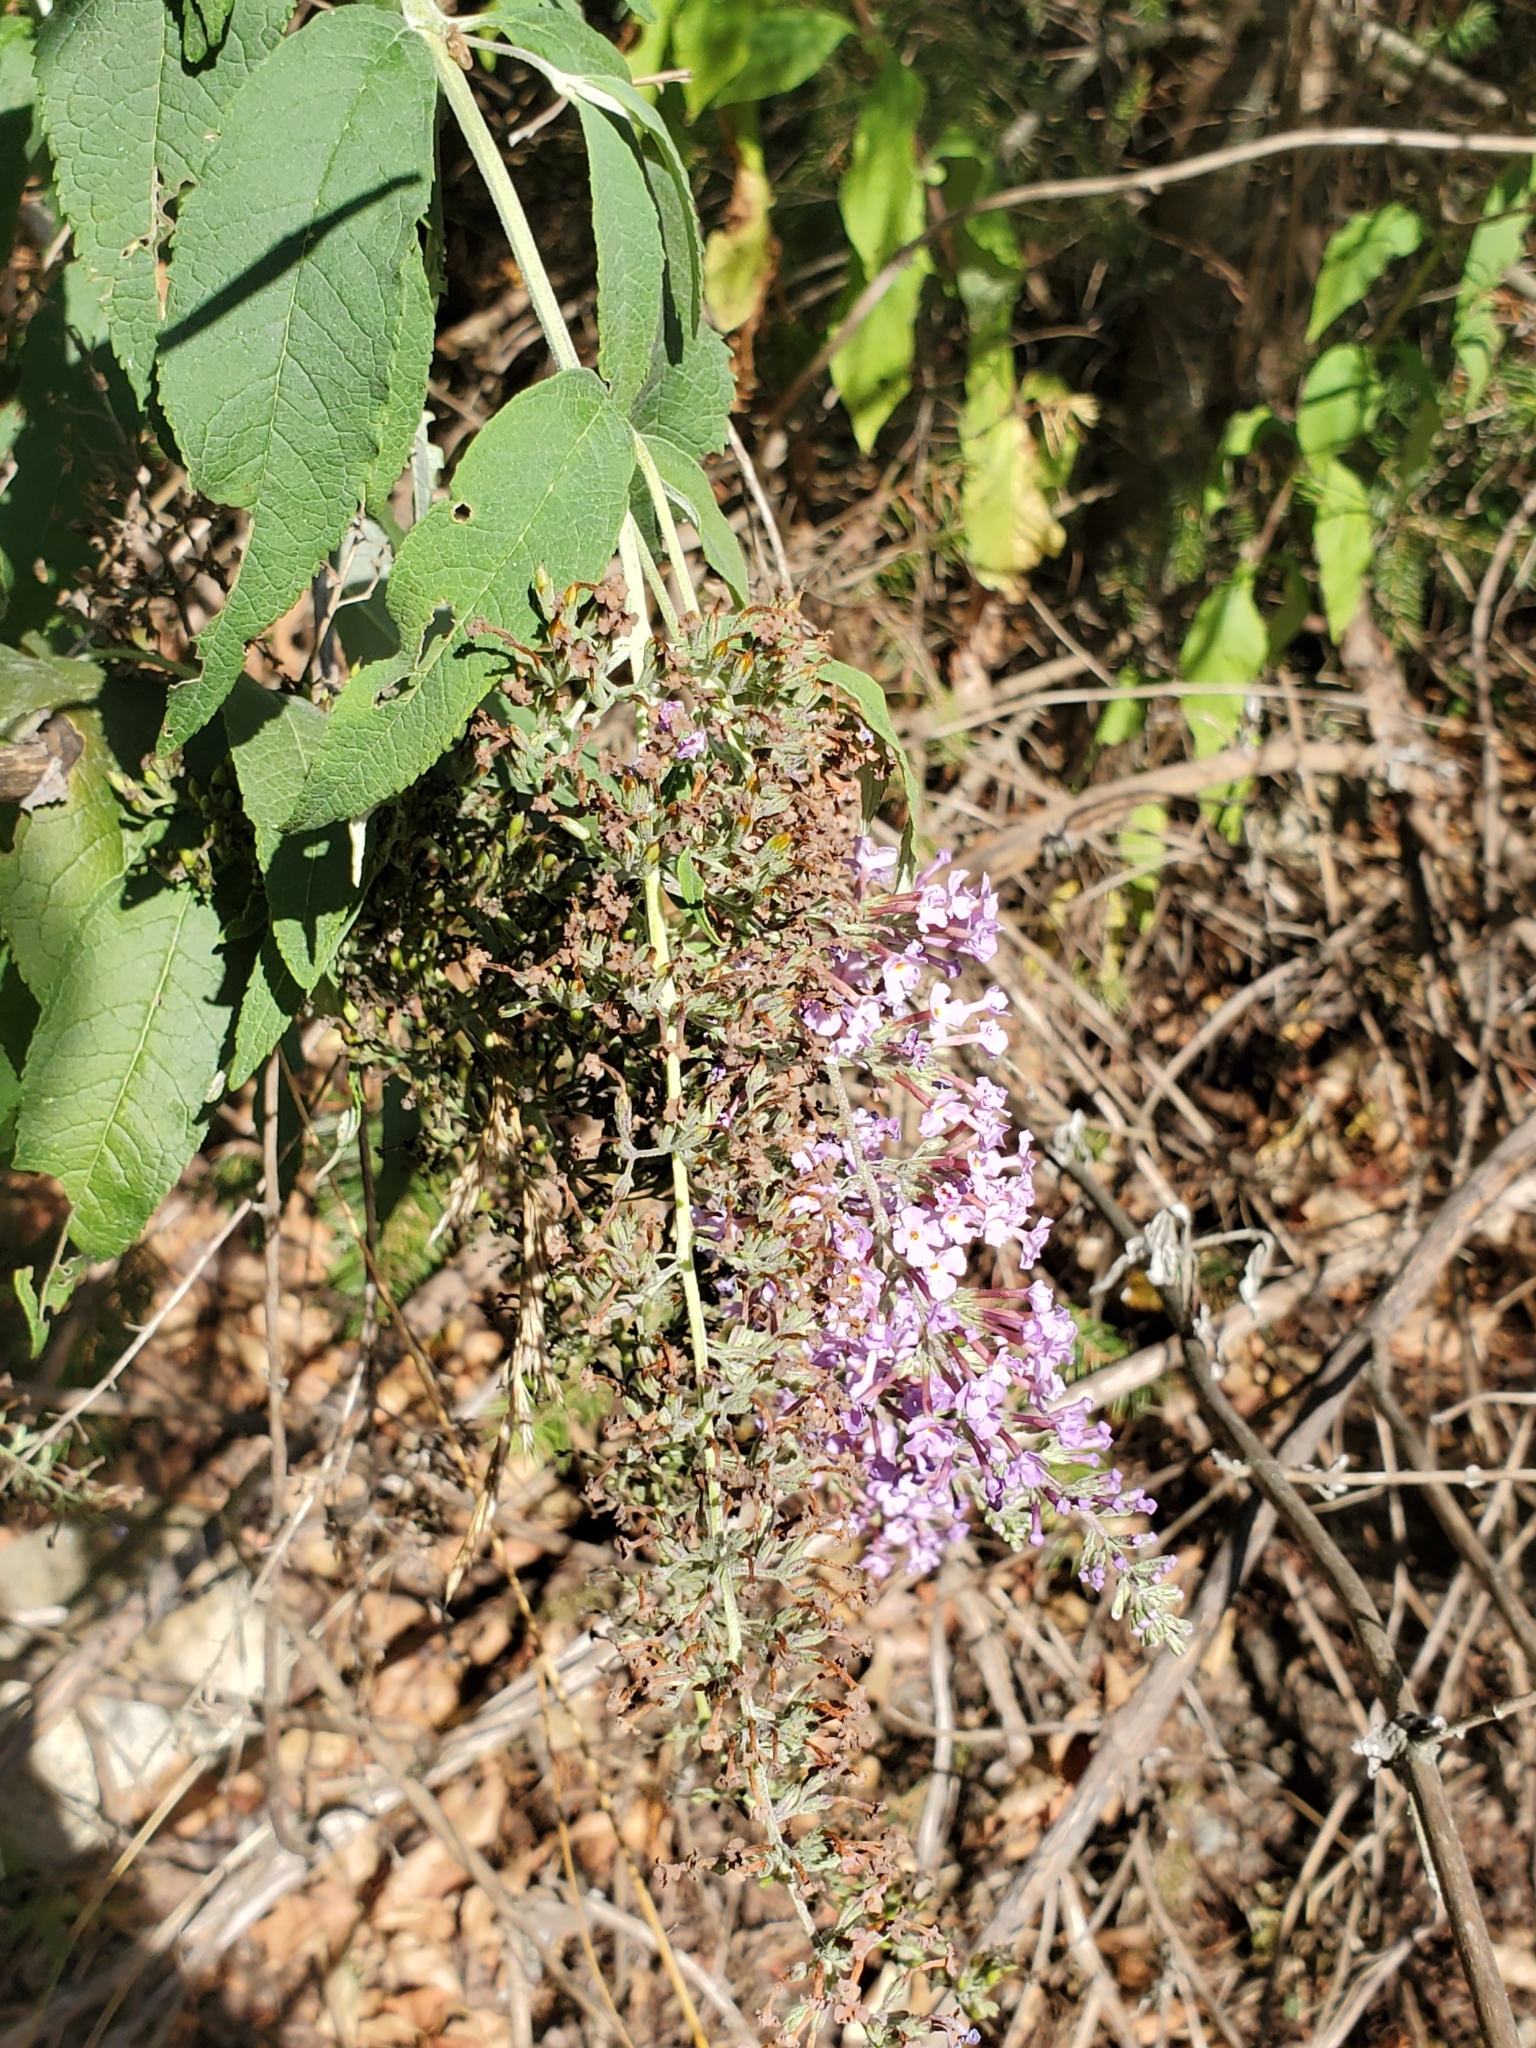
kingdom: Plantae
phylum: Tracheophyta
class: Magnoliopsida
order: Lamiales
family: Scrophulariaceae
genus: Buddleja
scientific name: Buddleja davidii
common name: Butterfly-bush
